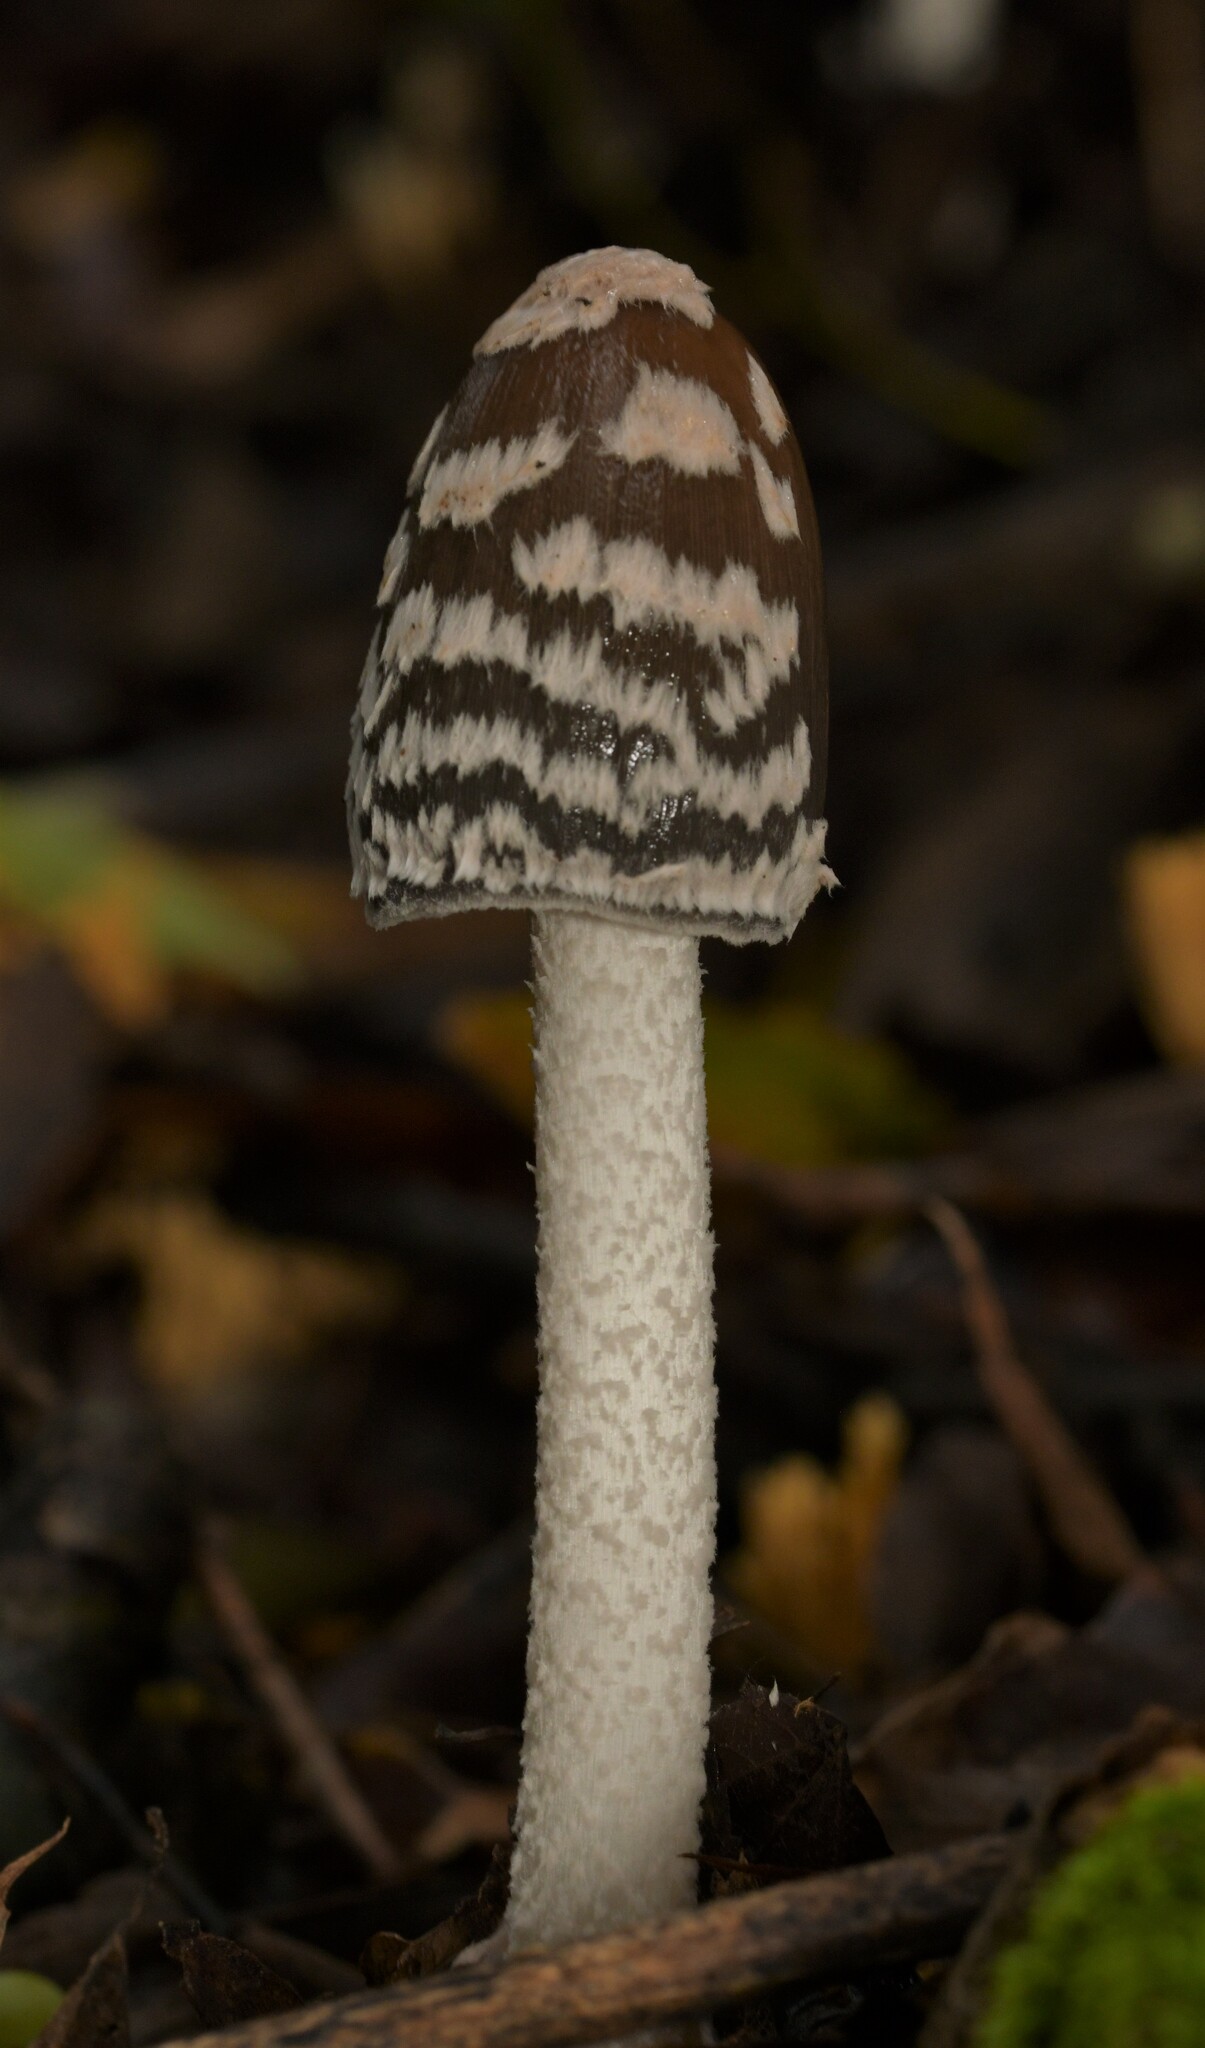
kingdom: Fungi
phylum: Basidiomycota
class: Agaricomycetes
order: Agaricales
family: Psathyrellaceae
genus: Coprinopsis
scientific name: Coprinopsis picacea
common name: Magpie inkcap
